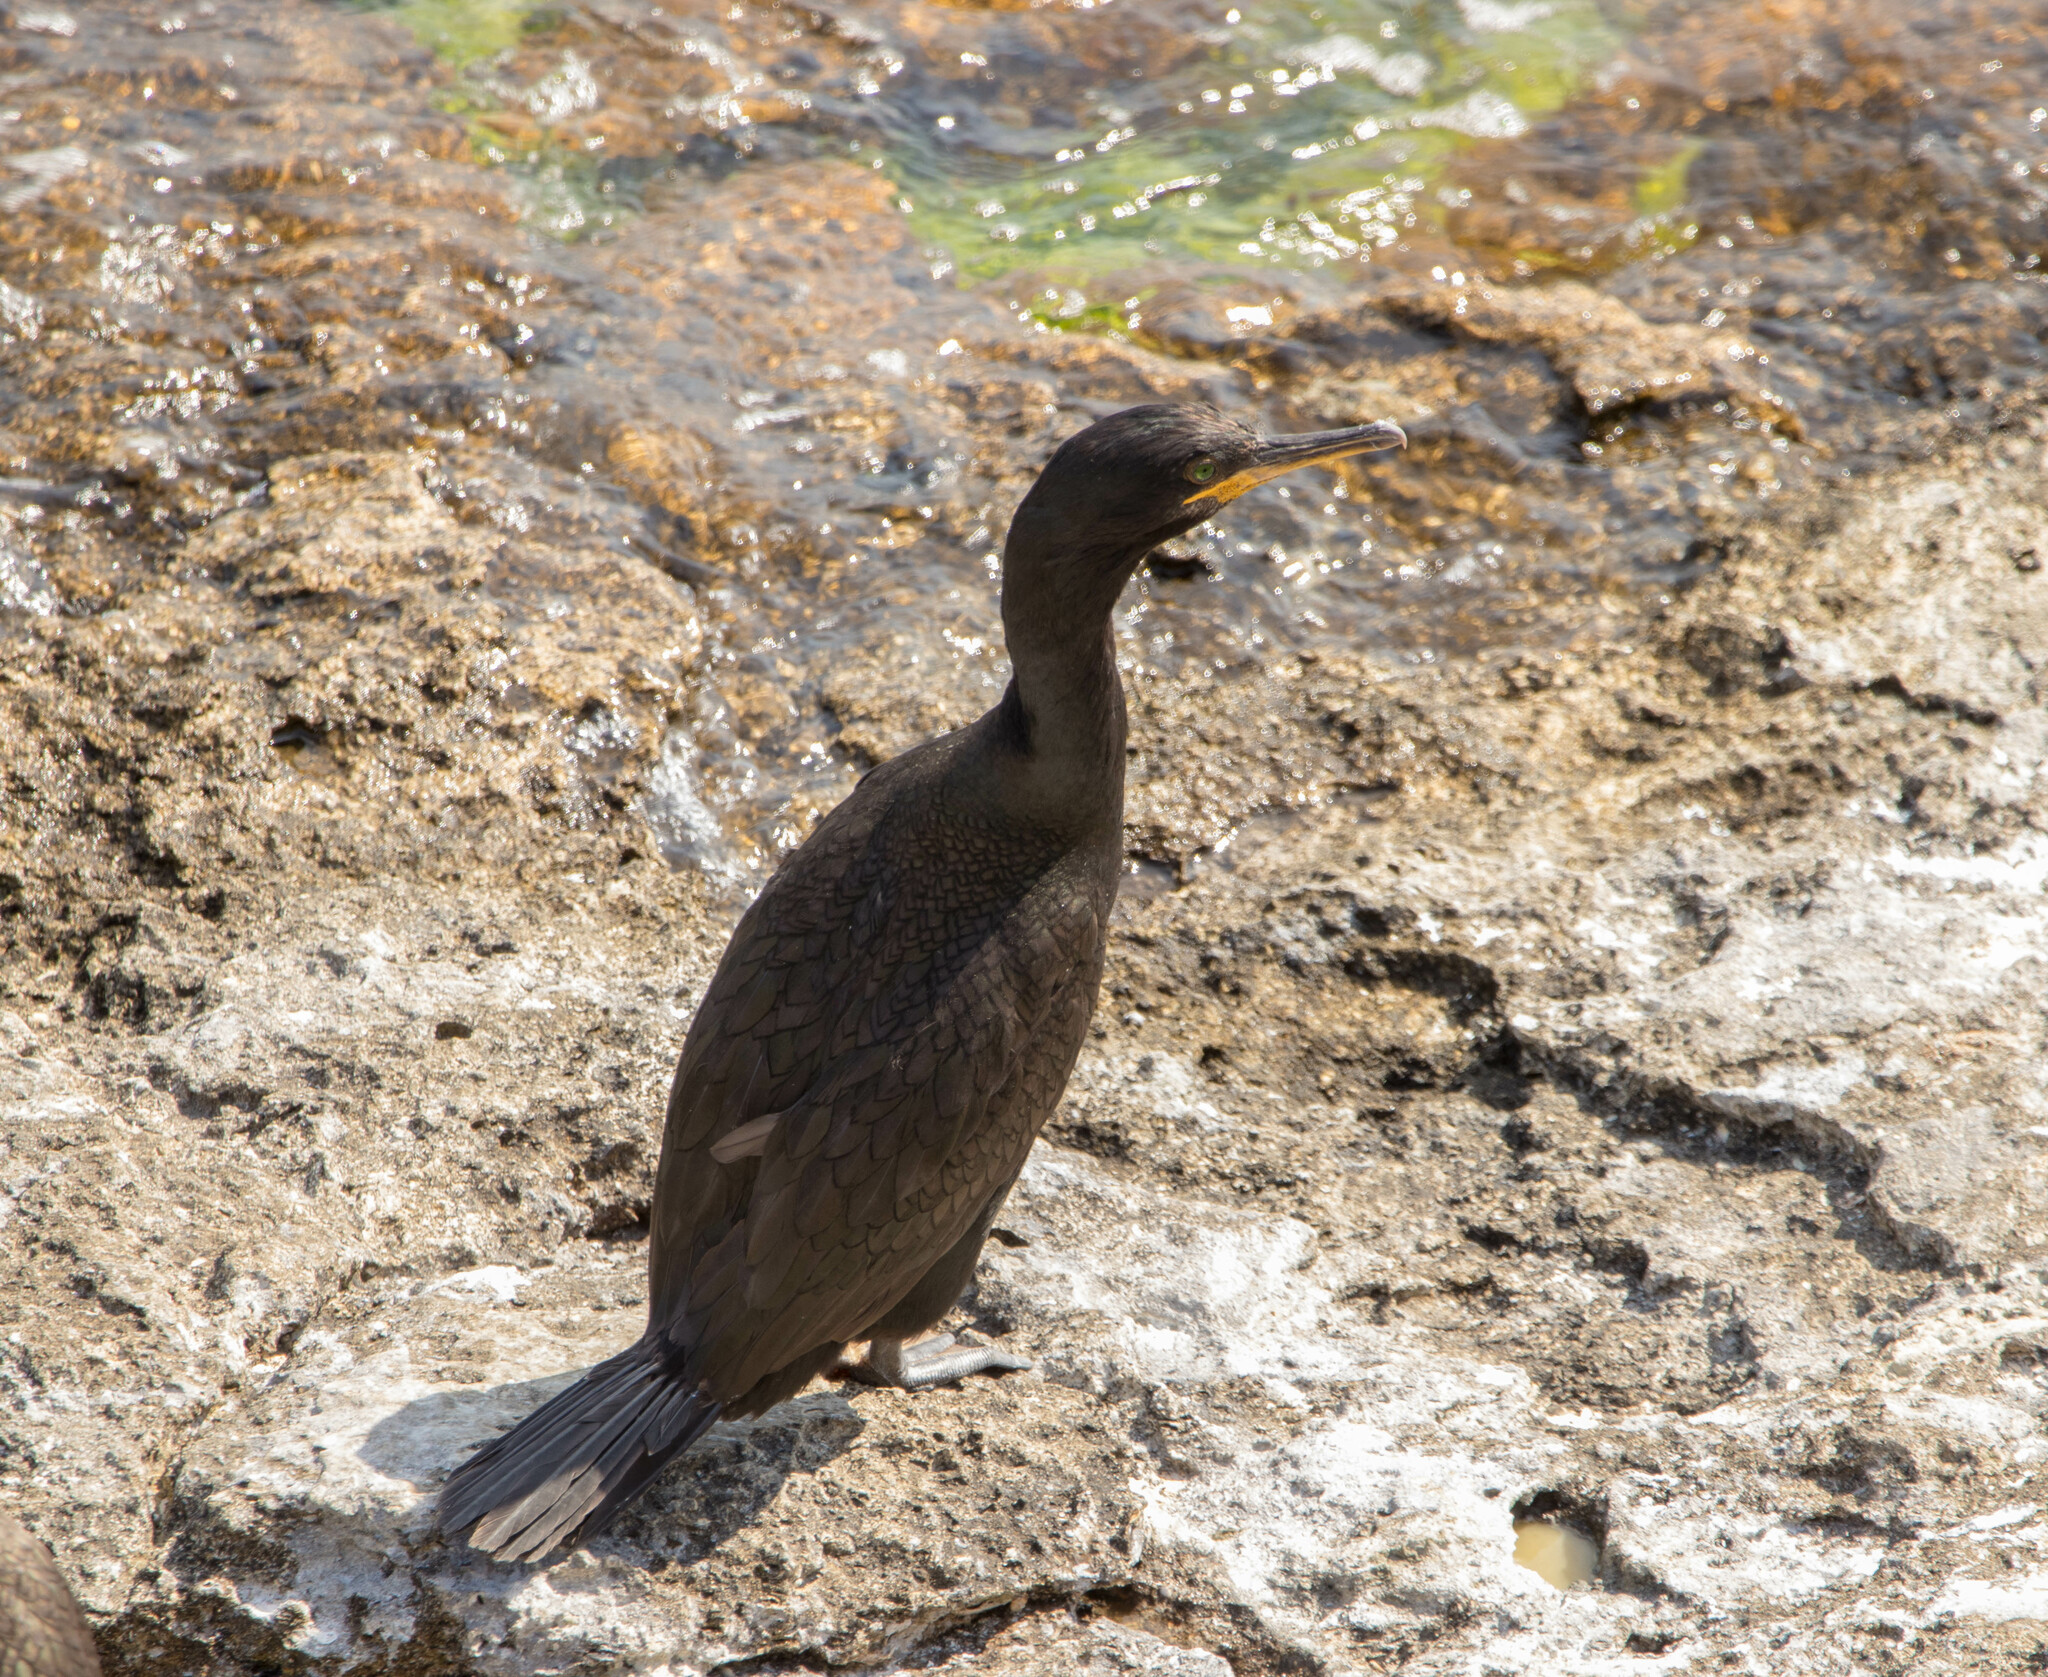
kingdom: Animalia
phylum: Chordata
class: Aves
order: Suliformes
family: Phalacrocoracidae
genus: Phalacrocorax
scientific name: Phalacrocorax aristotelis
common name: European shag
